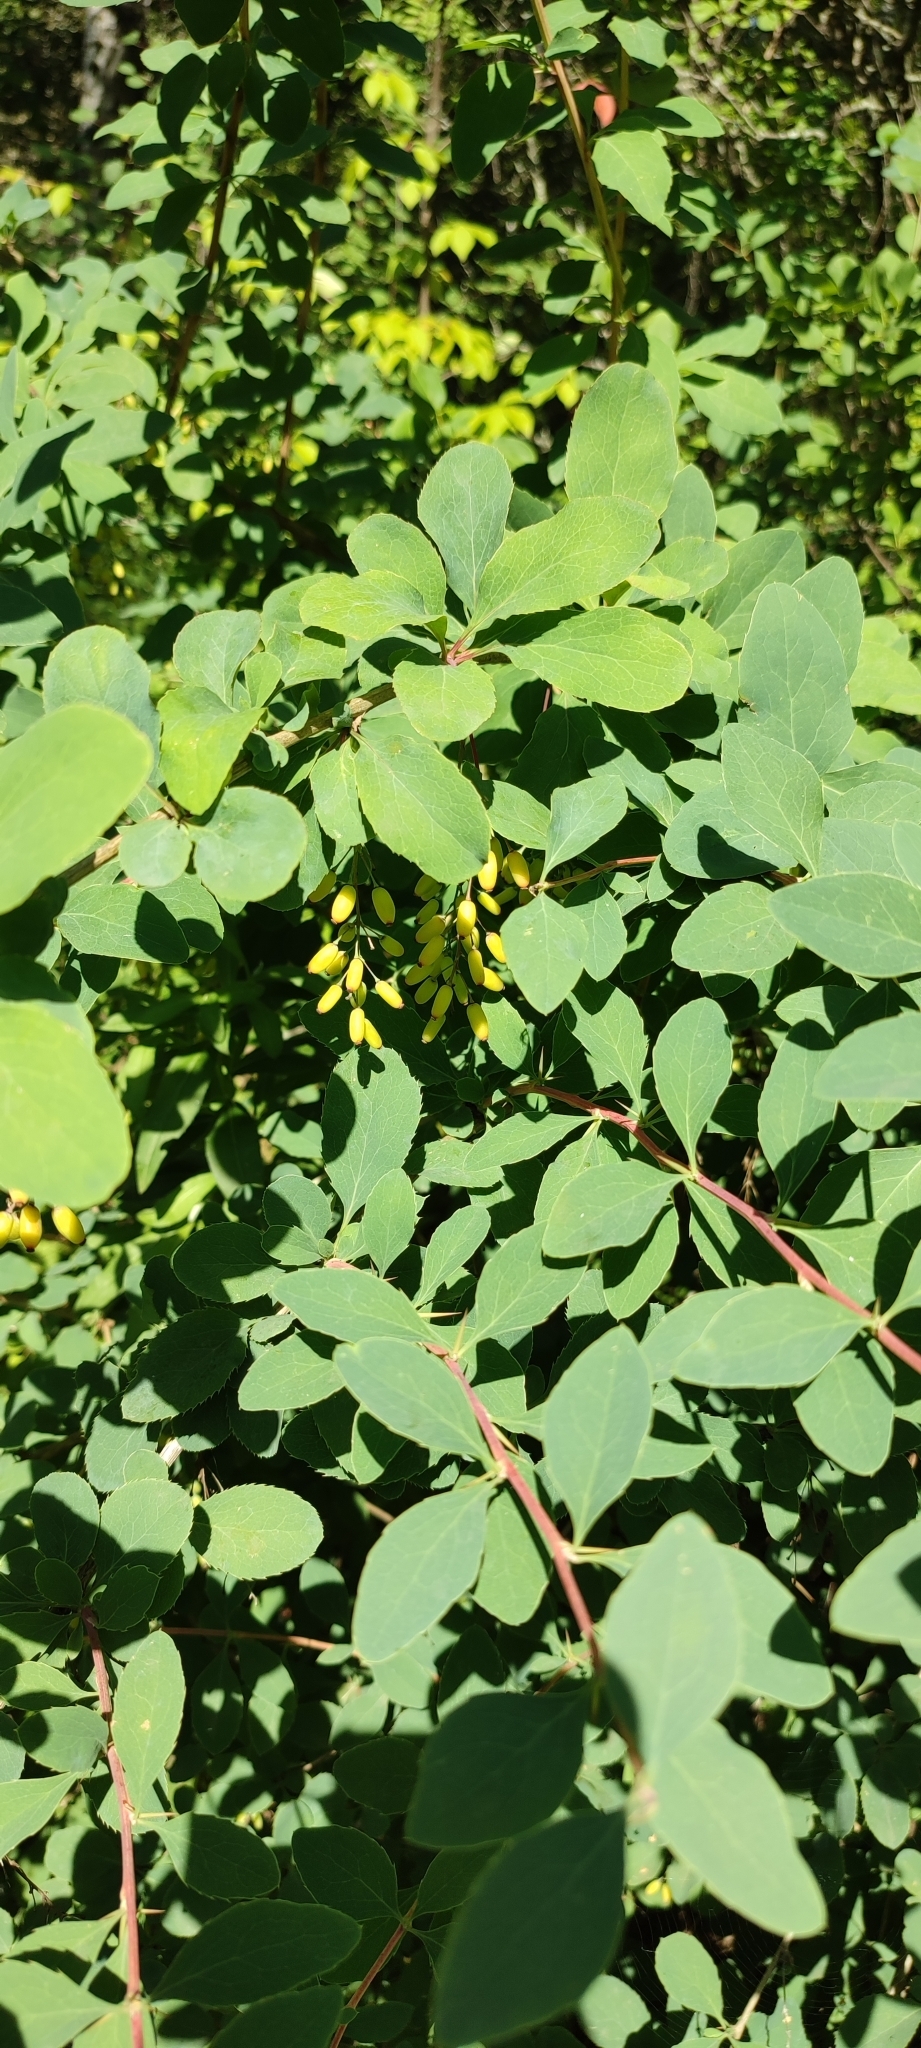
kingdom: Plantae
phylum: Tracheophyta
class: Magnoliopsida
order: Ranunculales
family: Berberidaceae
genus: Berberis
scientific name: Berberis vulgaris
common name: Barberry
